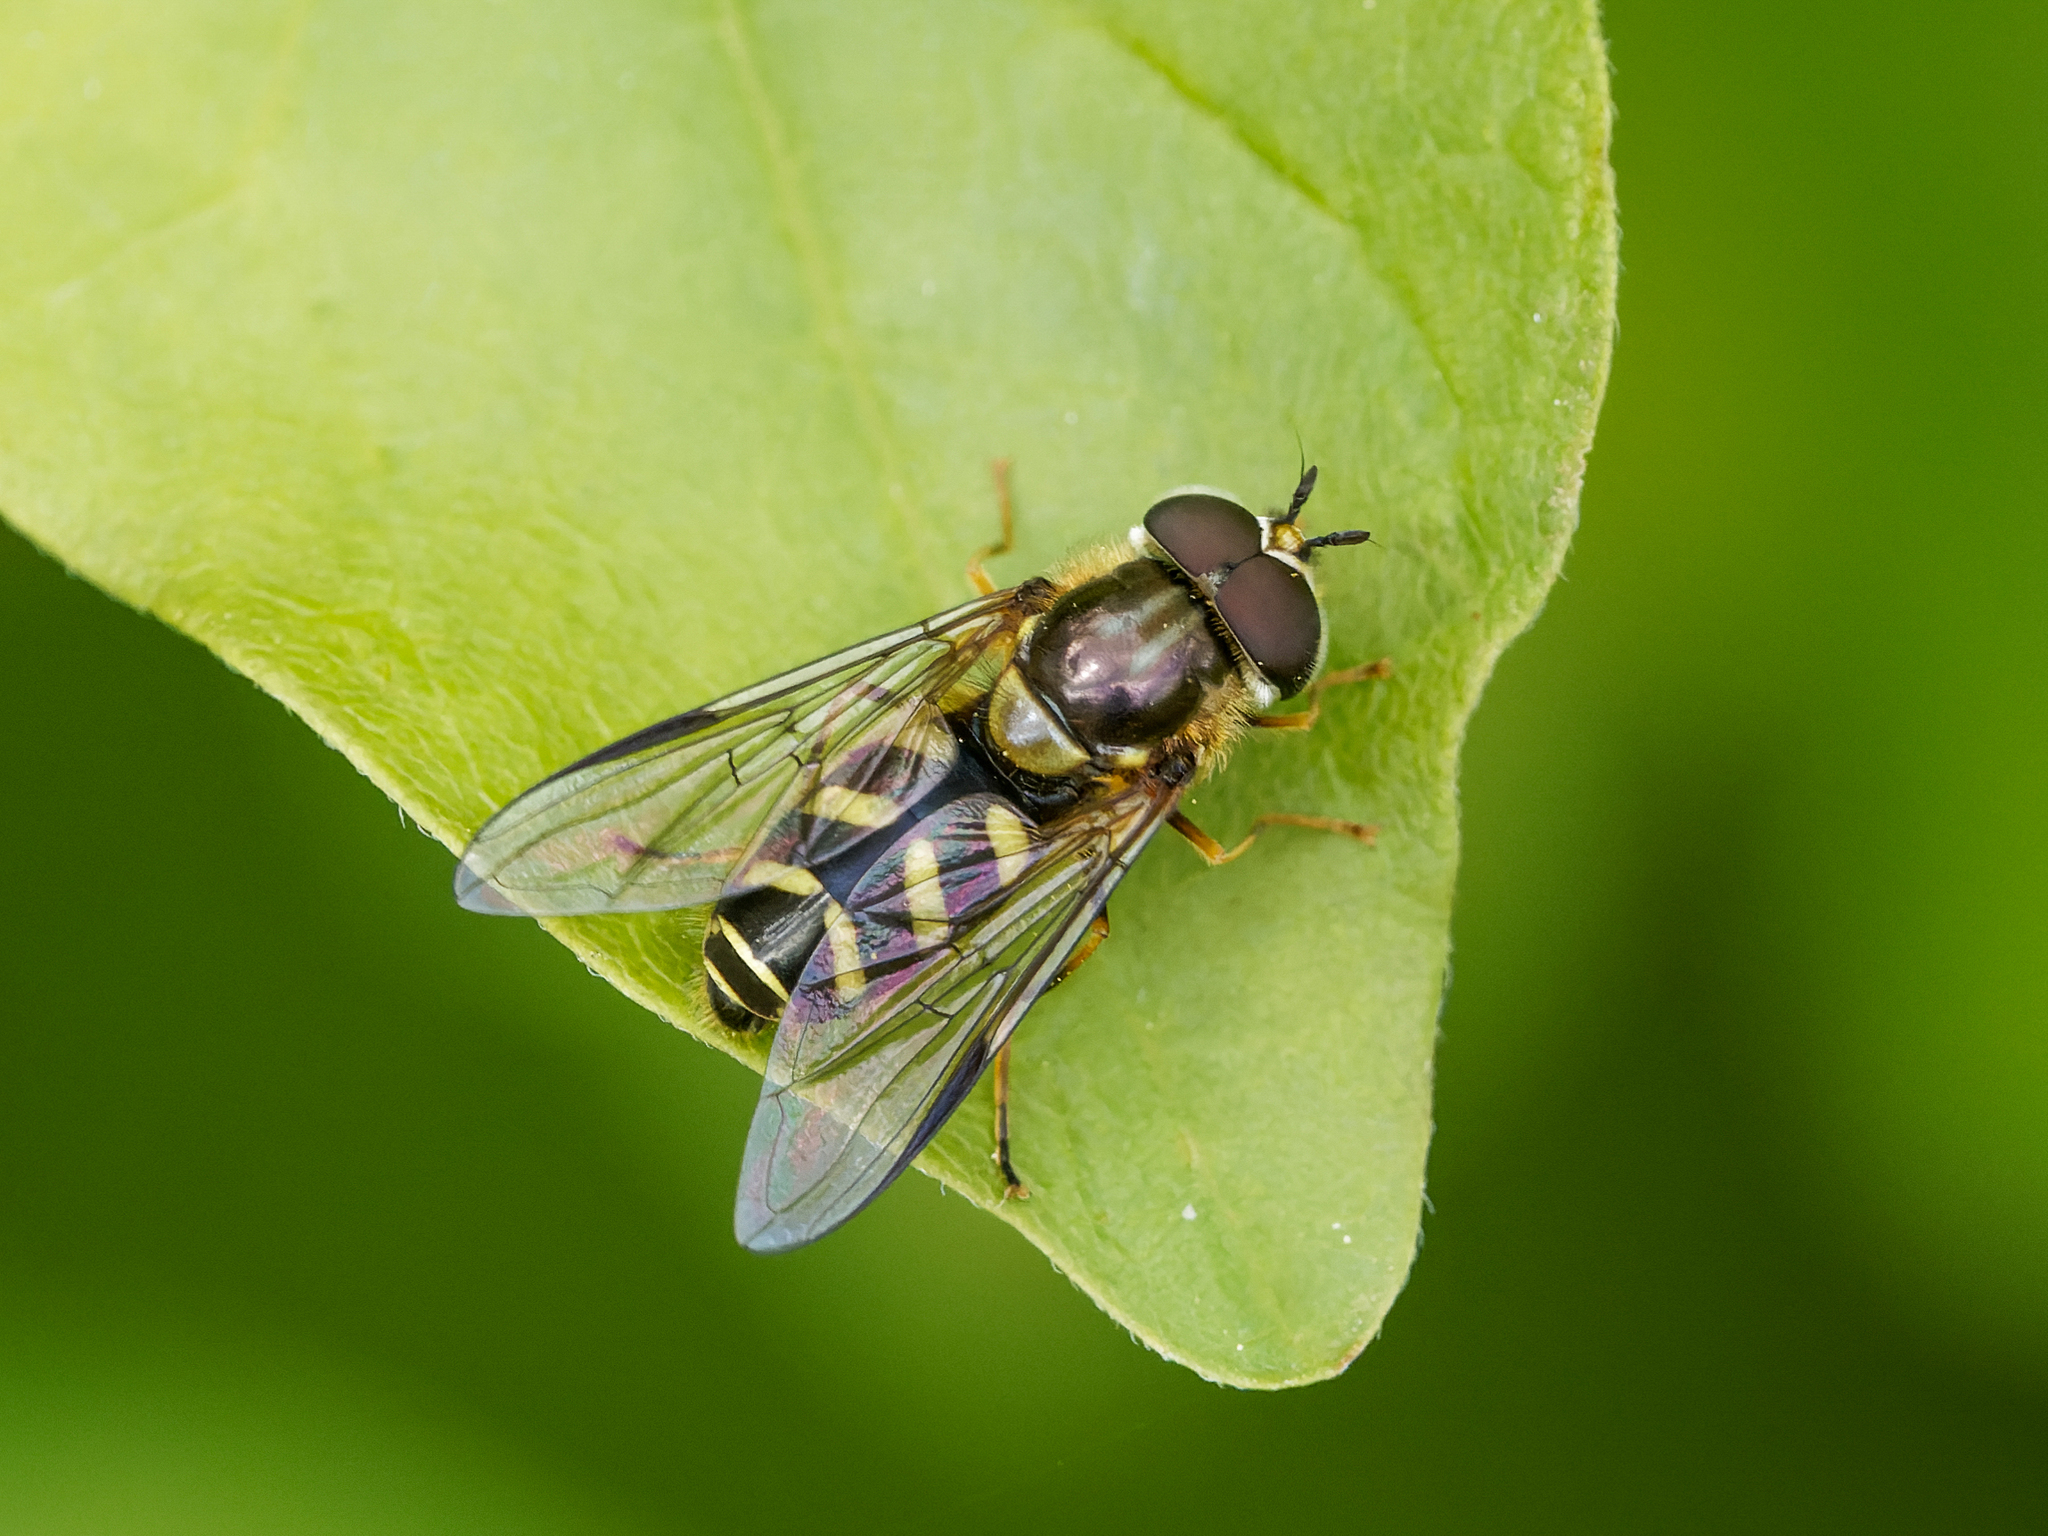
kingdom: Animalia
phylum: Arthropoda
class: Insecta
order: Diptera
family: Syrphidae
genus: Dasysyrphus
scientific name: Dasysyrphus albostriatus
